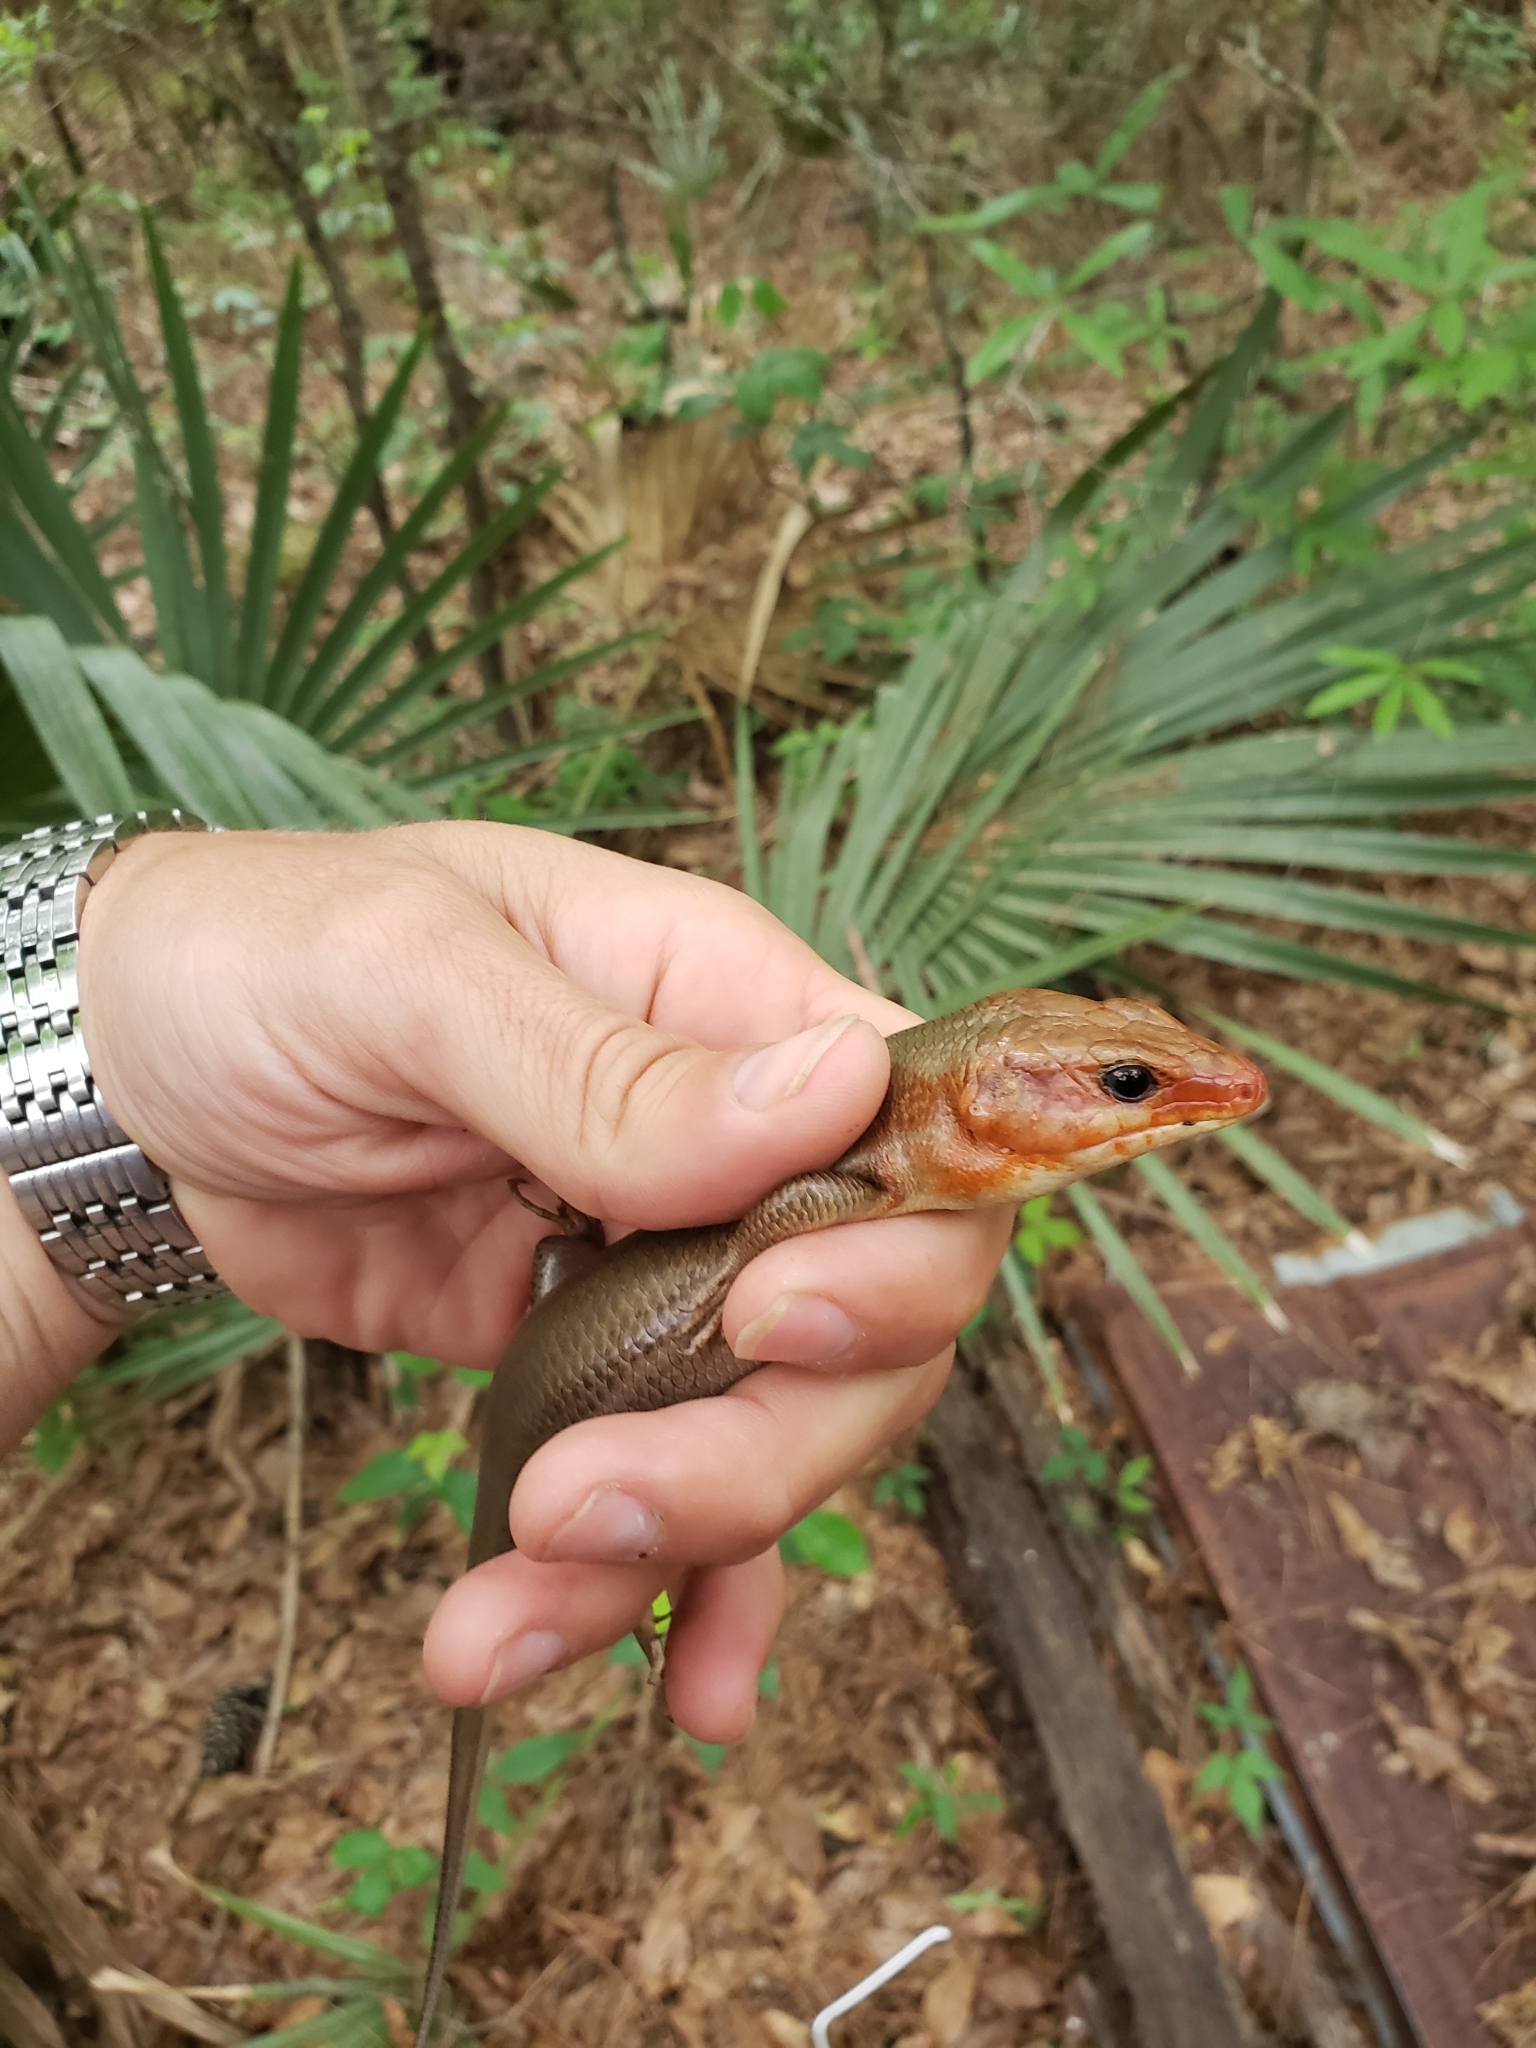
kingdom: Animalia
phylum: Chordata
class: Squamata
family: Scincidae
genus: Plestiodon
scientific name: Plestiodon laticeps
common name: Broadhead skink
